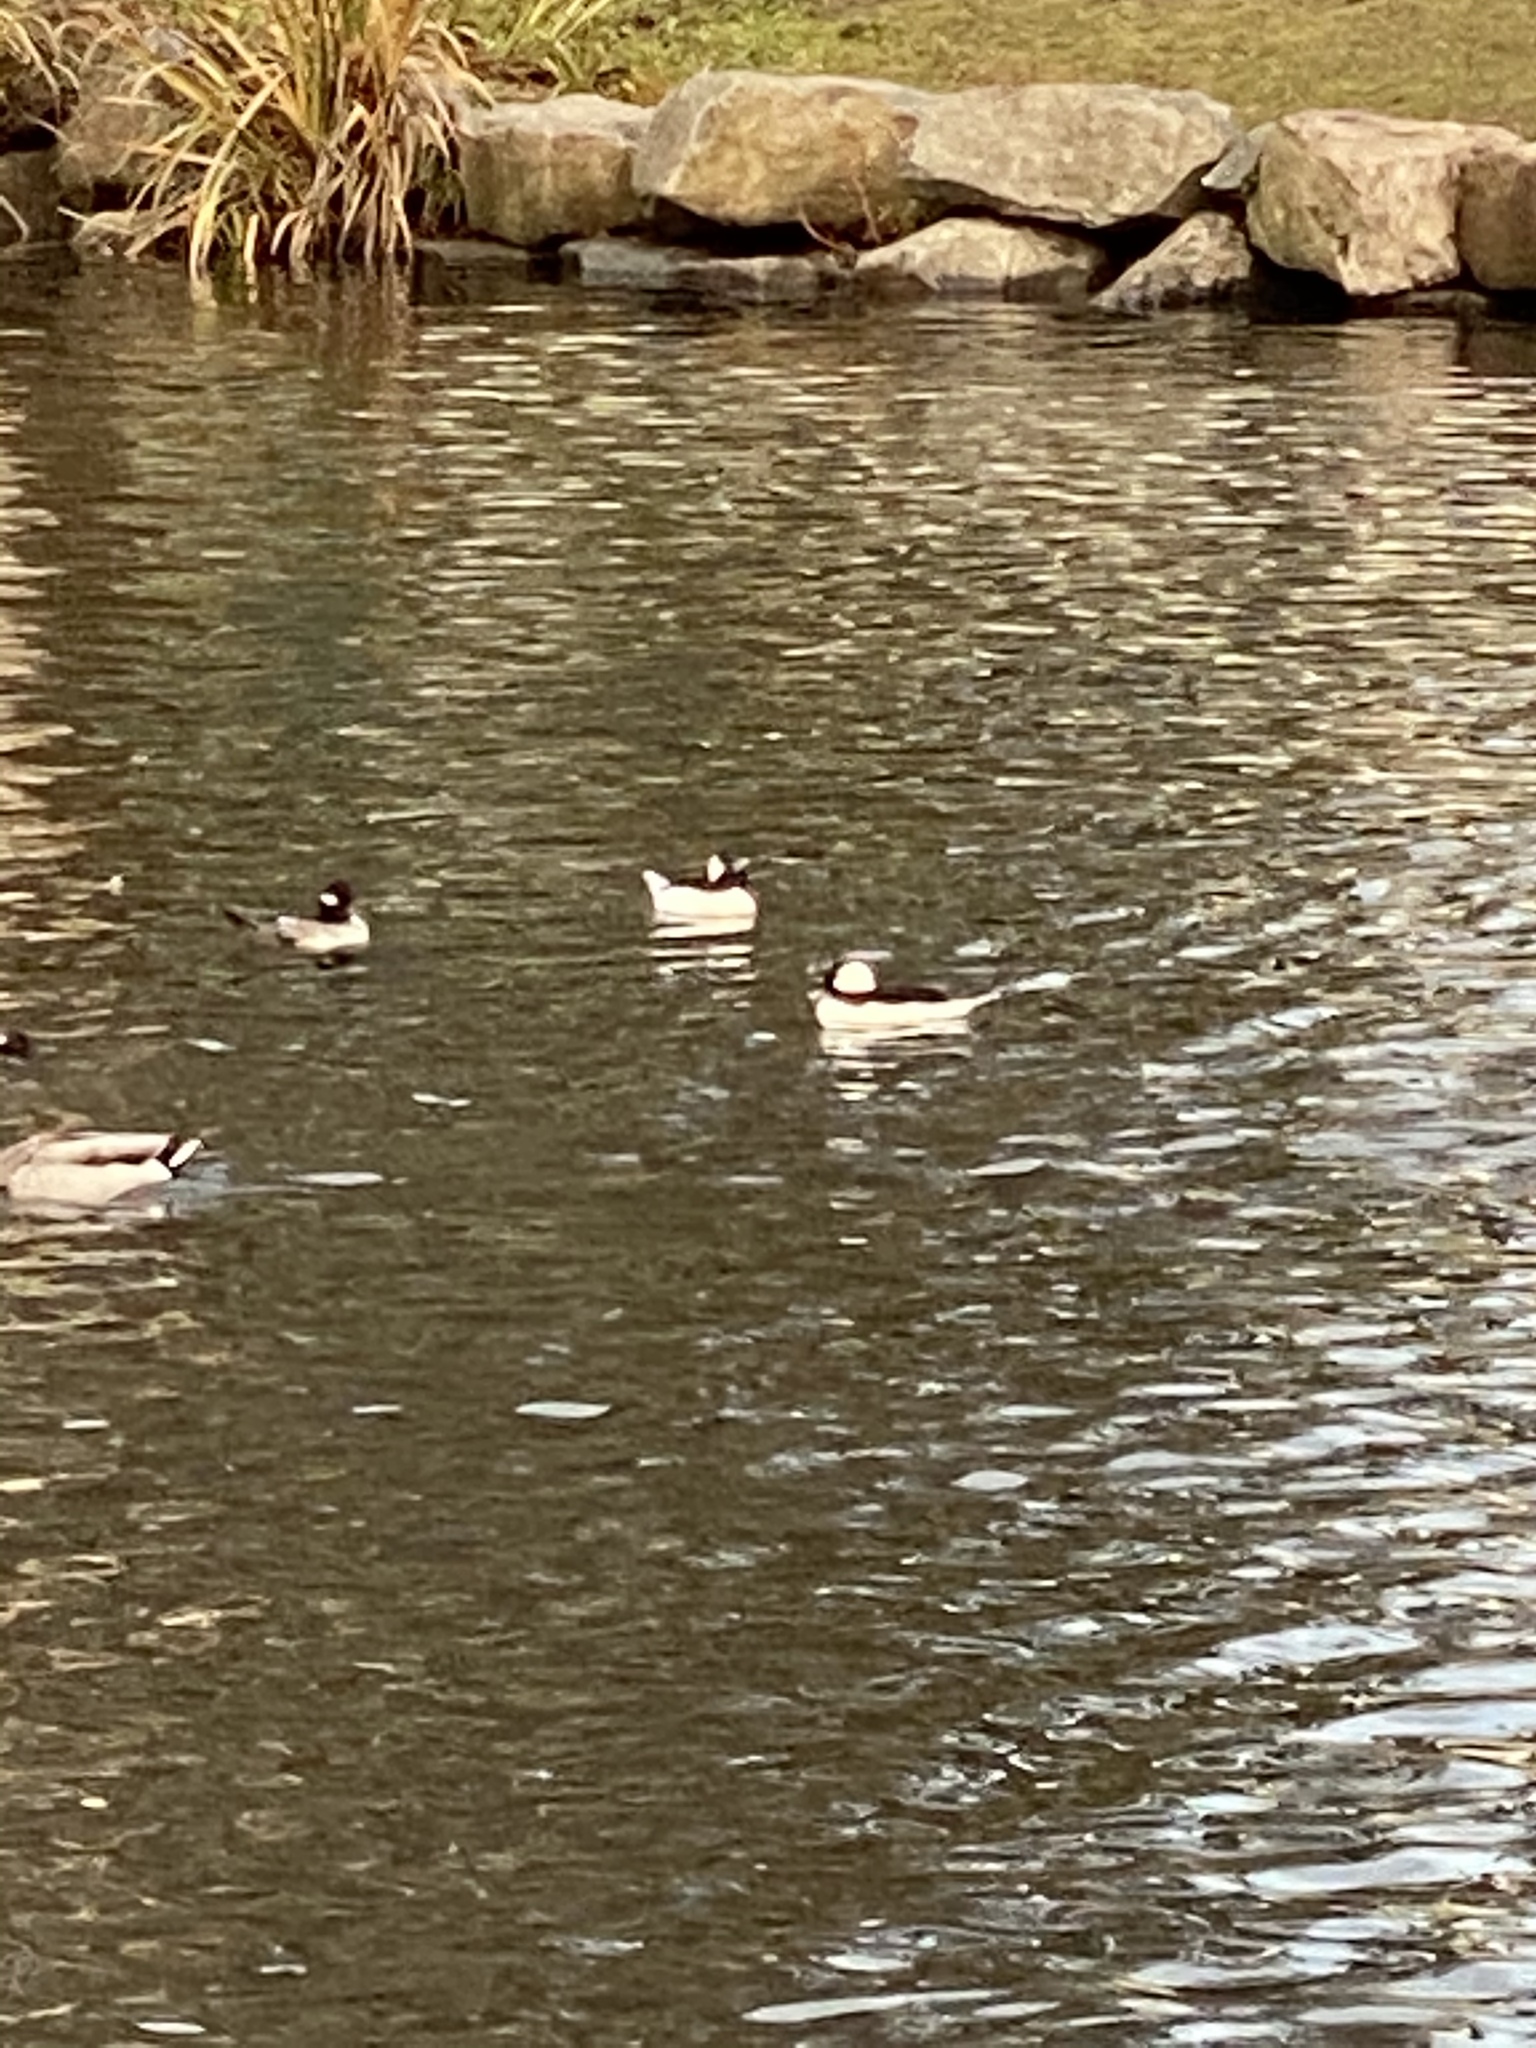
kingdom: Animalia
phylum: Chordata
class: Aves
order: Anseriformes
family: Anatidae
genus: Bucephala
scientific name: Bucephala albeola
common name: Bufflehead
